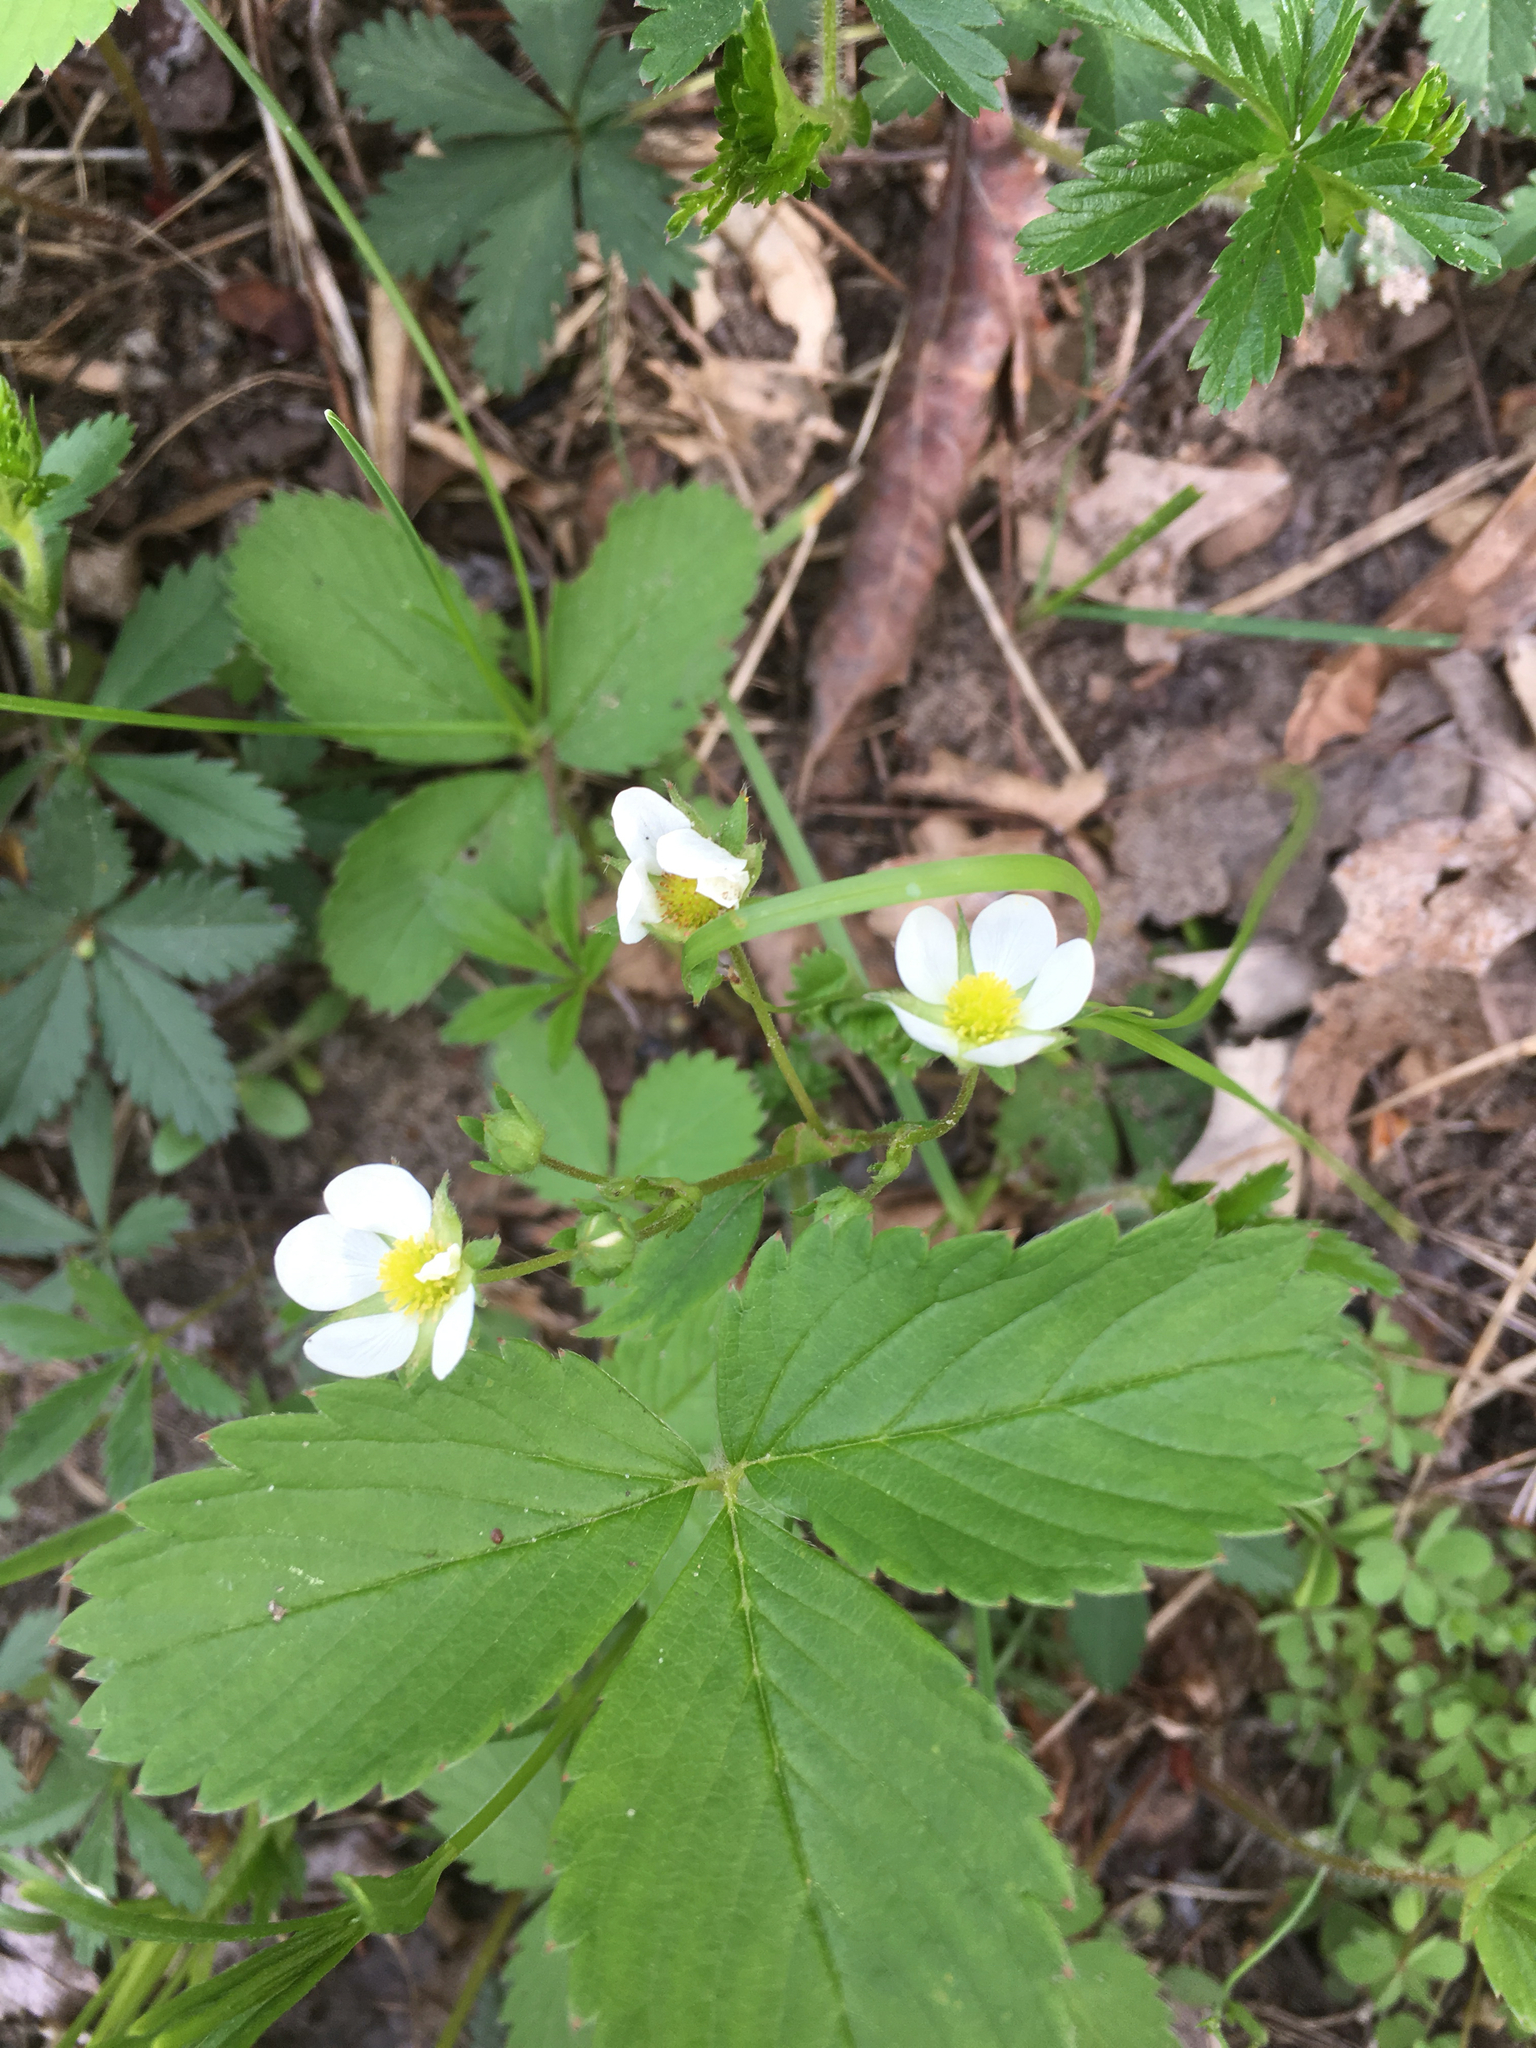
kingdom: Plantae
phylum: Tracheophyta
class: Magnoliopsida
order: Rosales
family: Rosaceae
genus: Fragaria
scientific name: Fragaria vesca
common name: Wild strawberry
